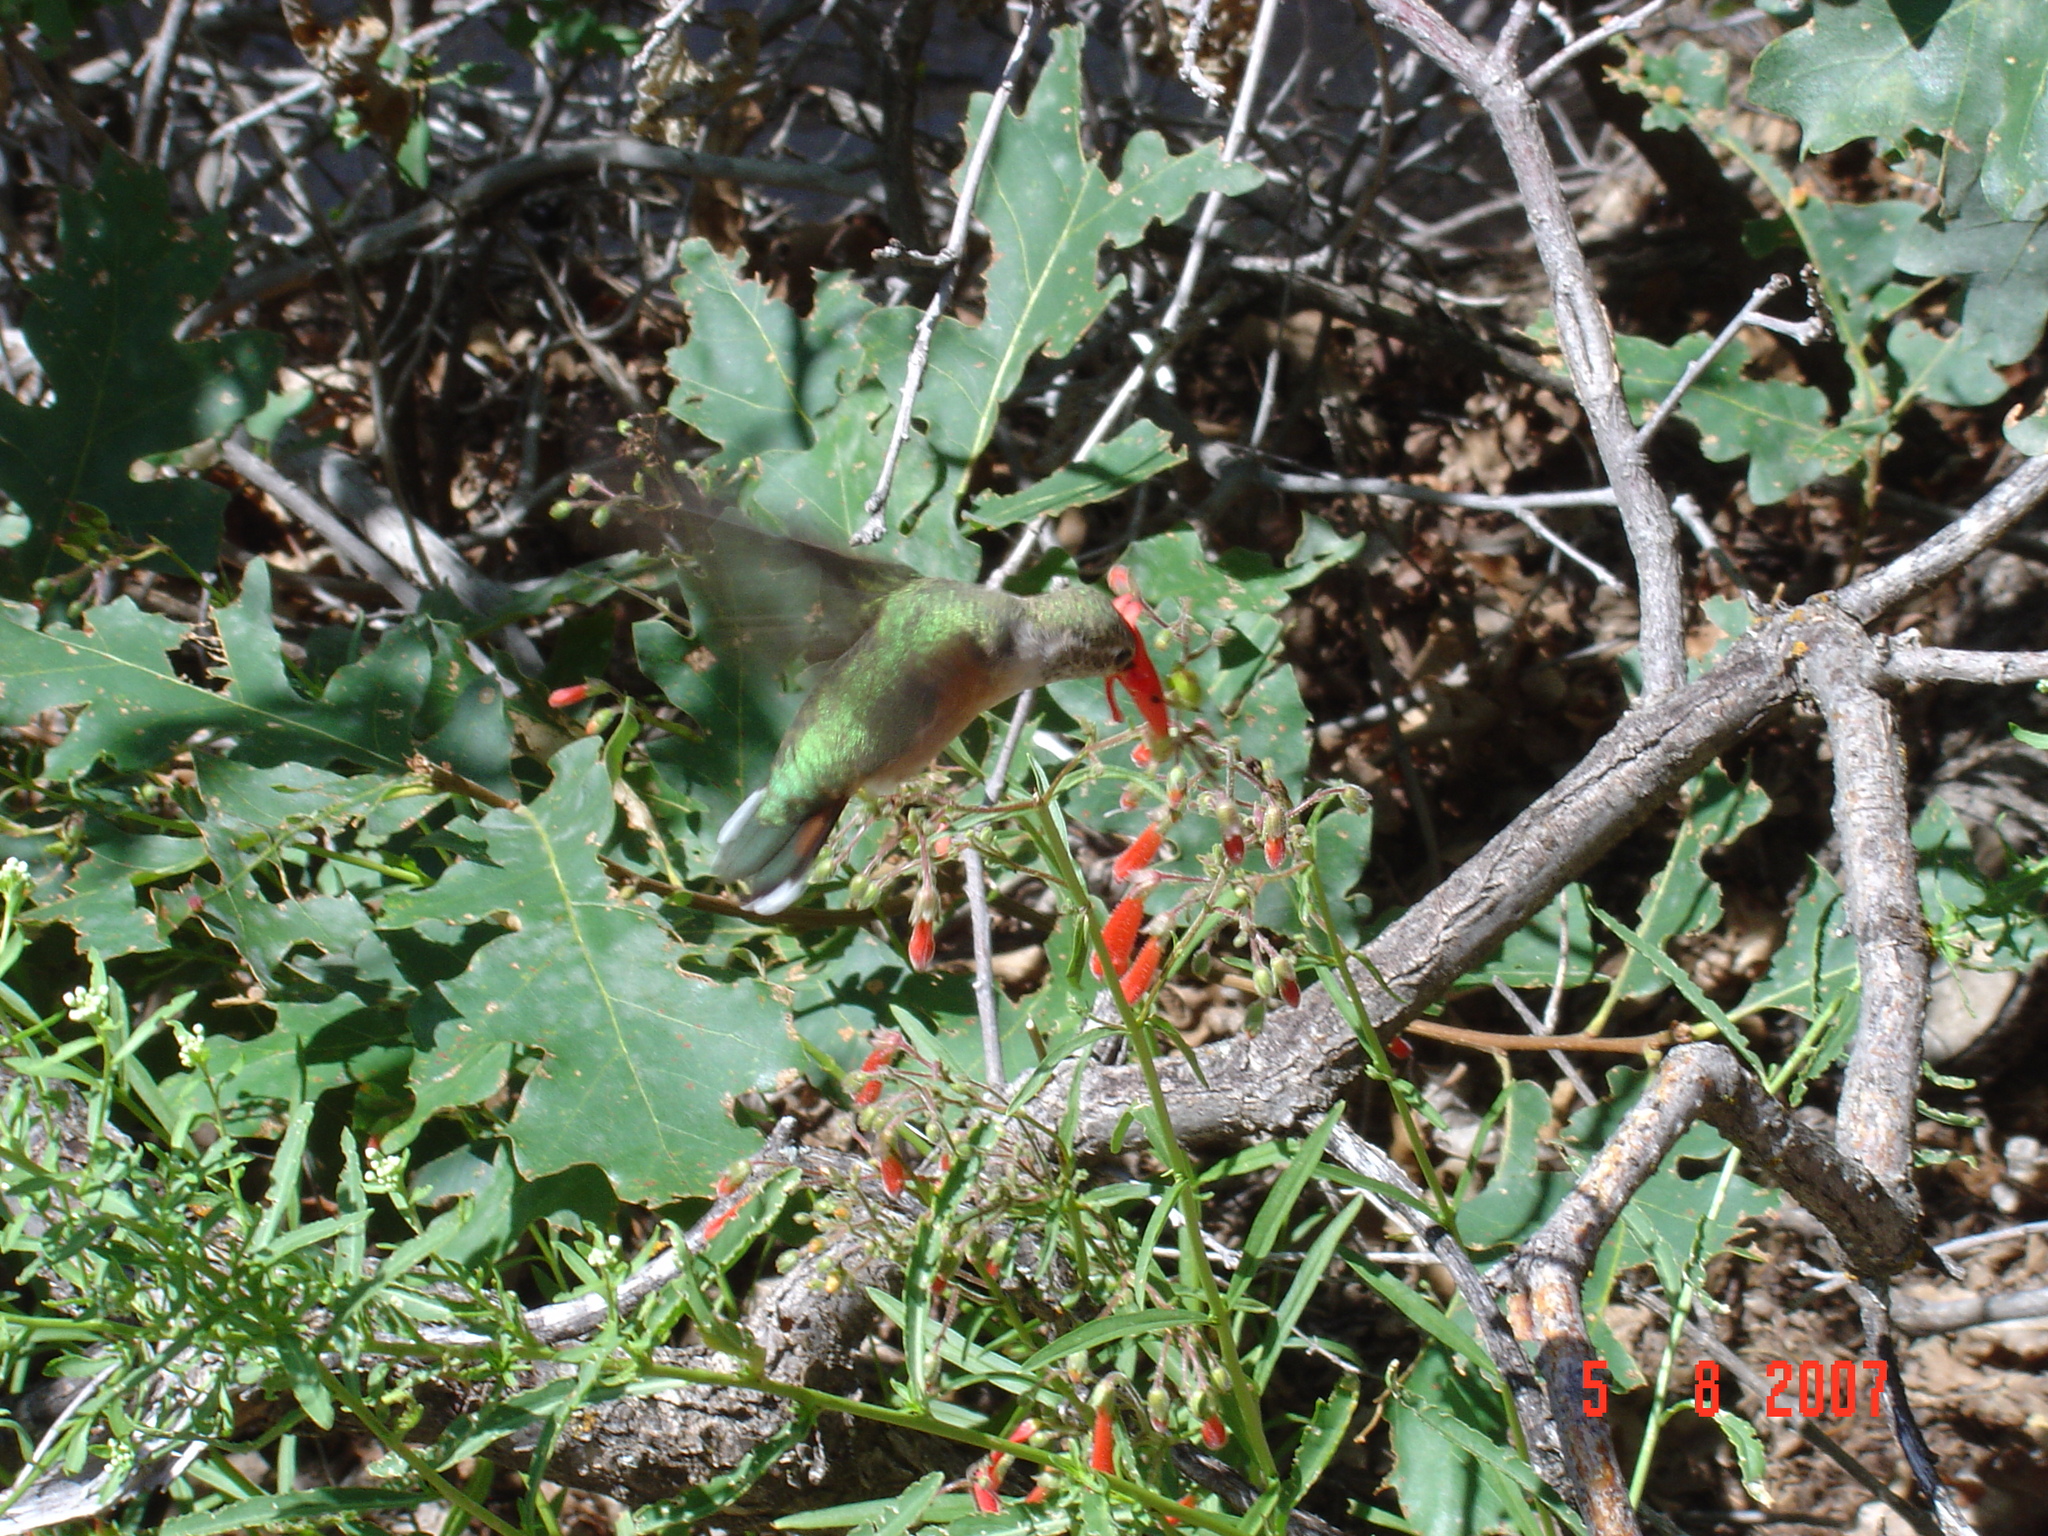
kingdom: Animalia
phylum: Chordata
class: Aves
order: Apodiformes
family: Trochilidae
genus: Selasphorus
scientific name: Selasphorus platycercus
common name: Broad-tailed hummingbird
